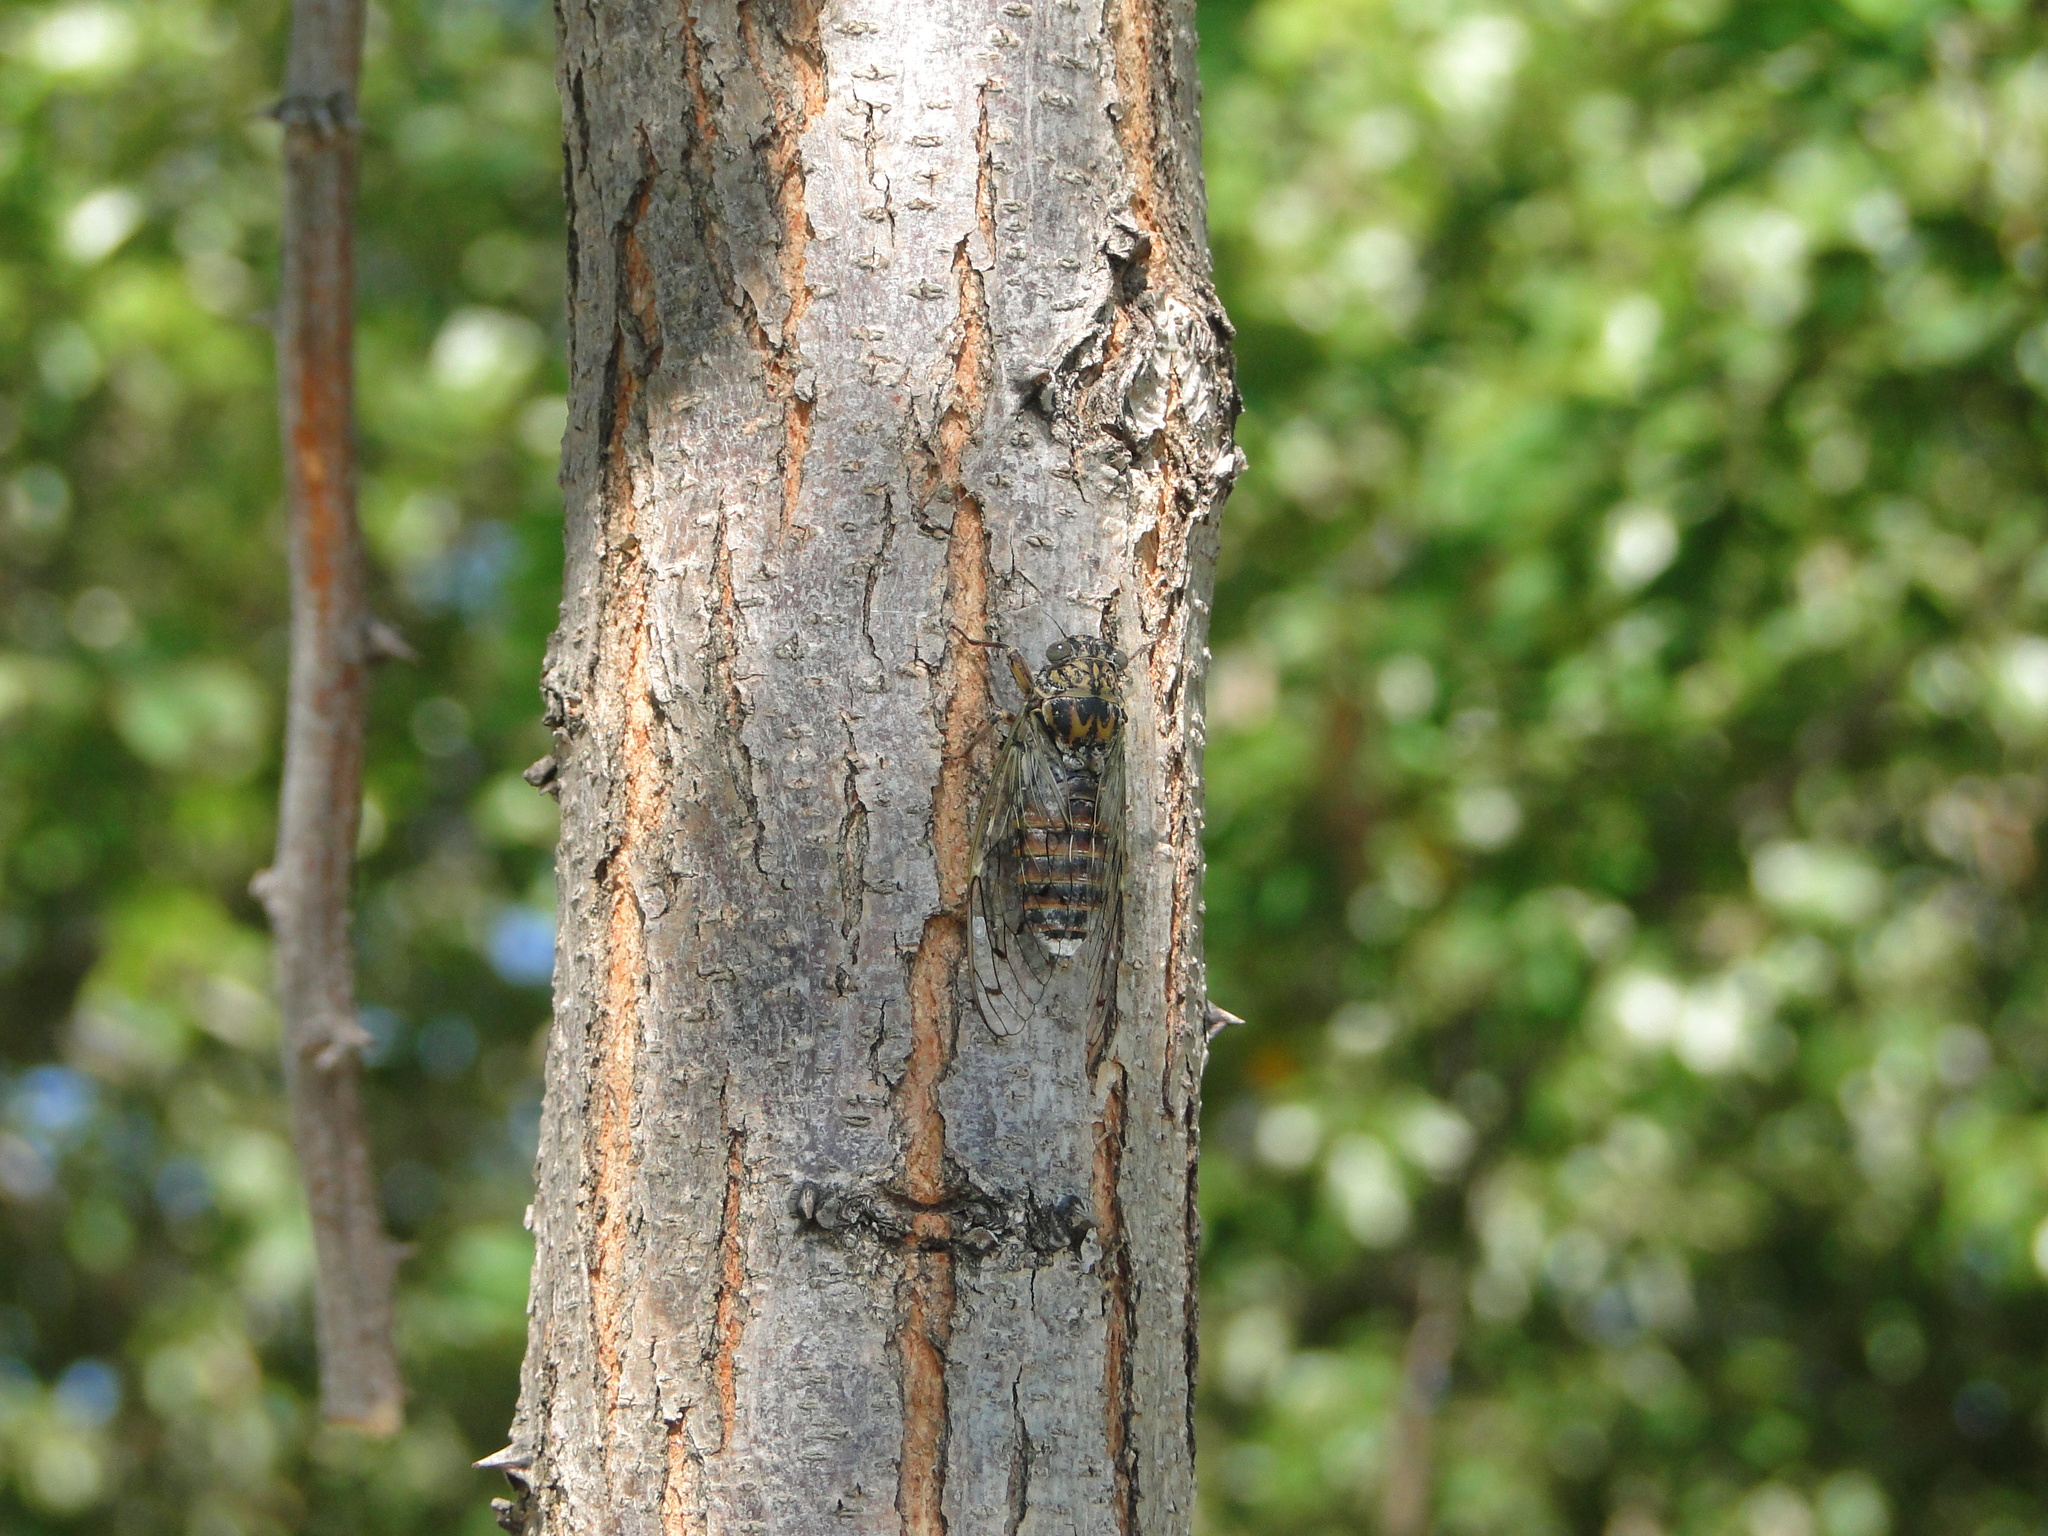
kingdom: Animalia
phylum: Arthropoda
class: Insecta
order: Hemiptera
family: Cicadidae
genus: Cicada
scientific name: Cicada orni
